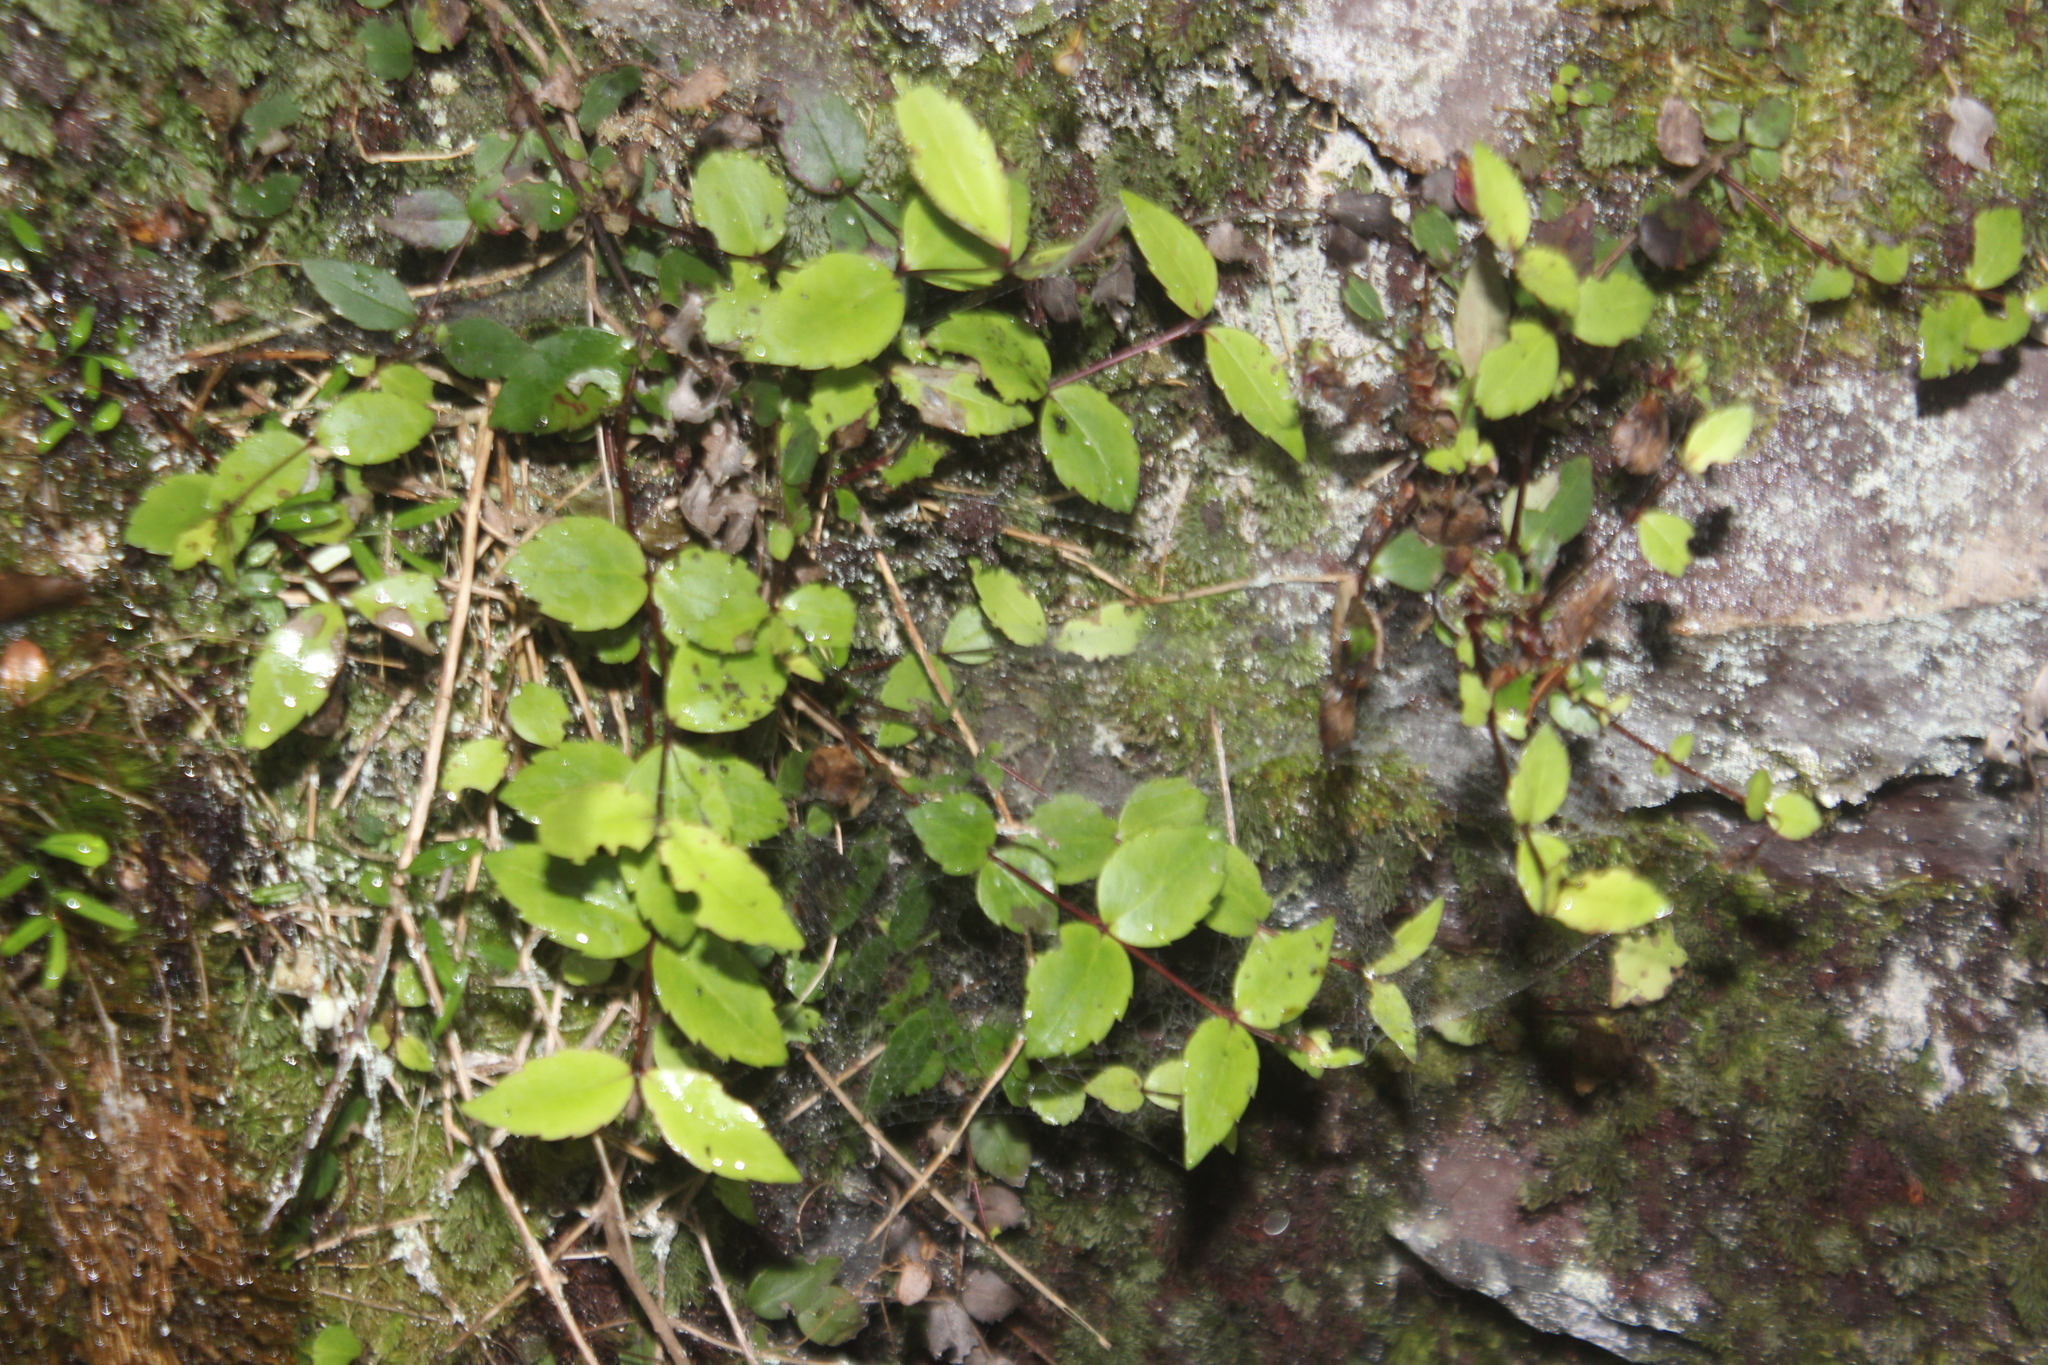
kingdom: Plantae
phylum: Tracheophyta
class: Magnoliopsida
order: Lamiales
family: Plantaginaceae
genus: Veronica
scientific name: Veronica lanceolata
